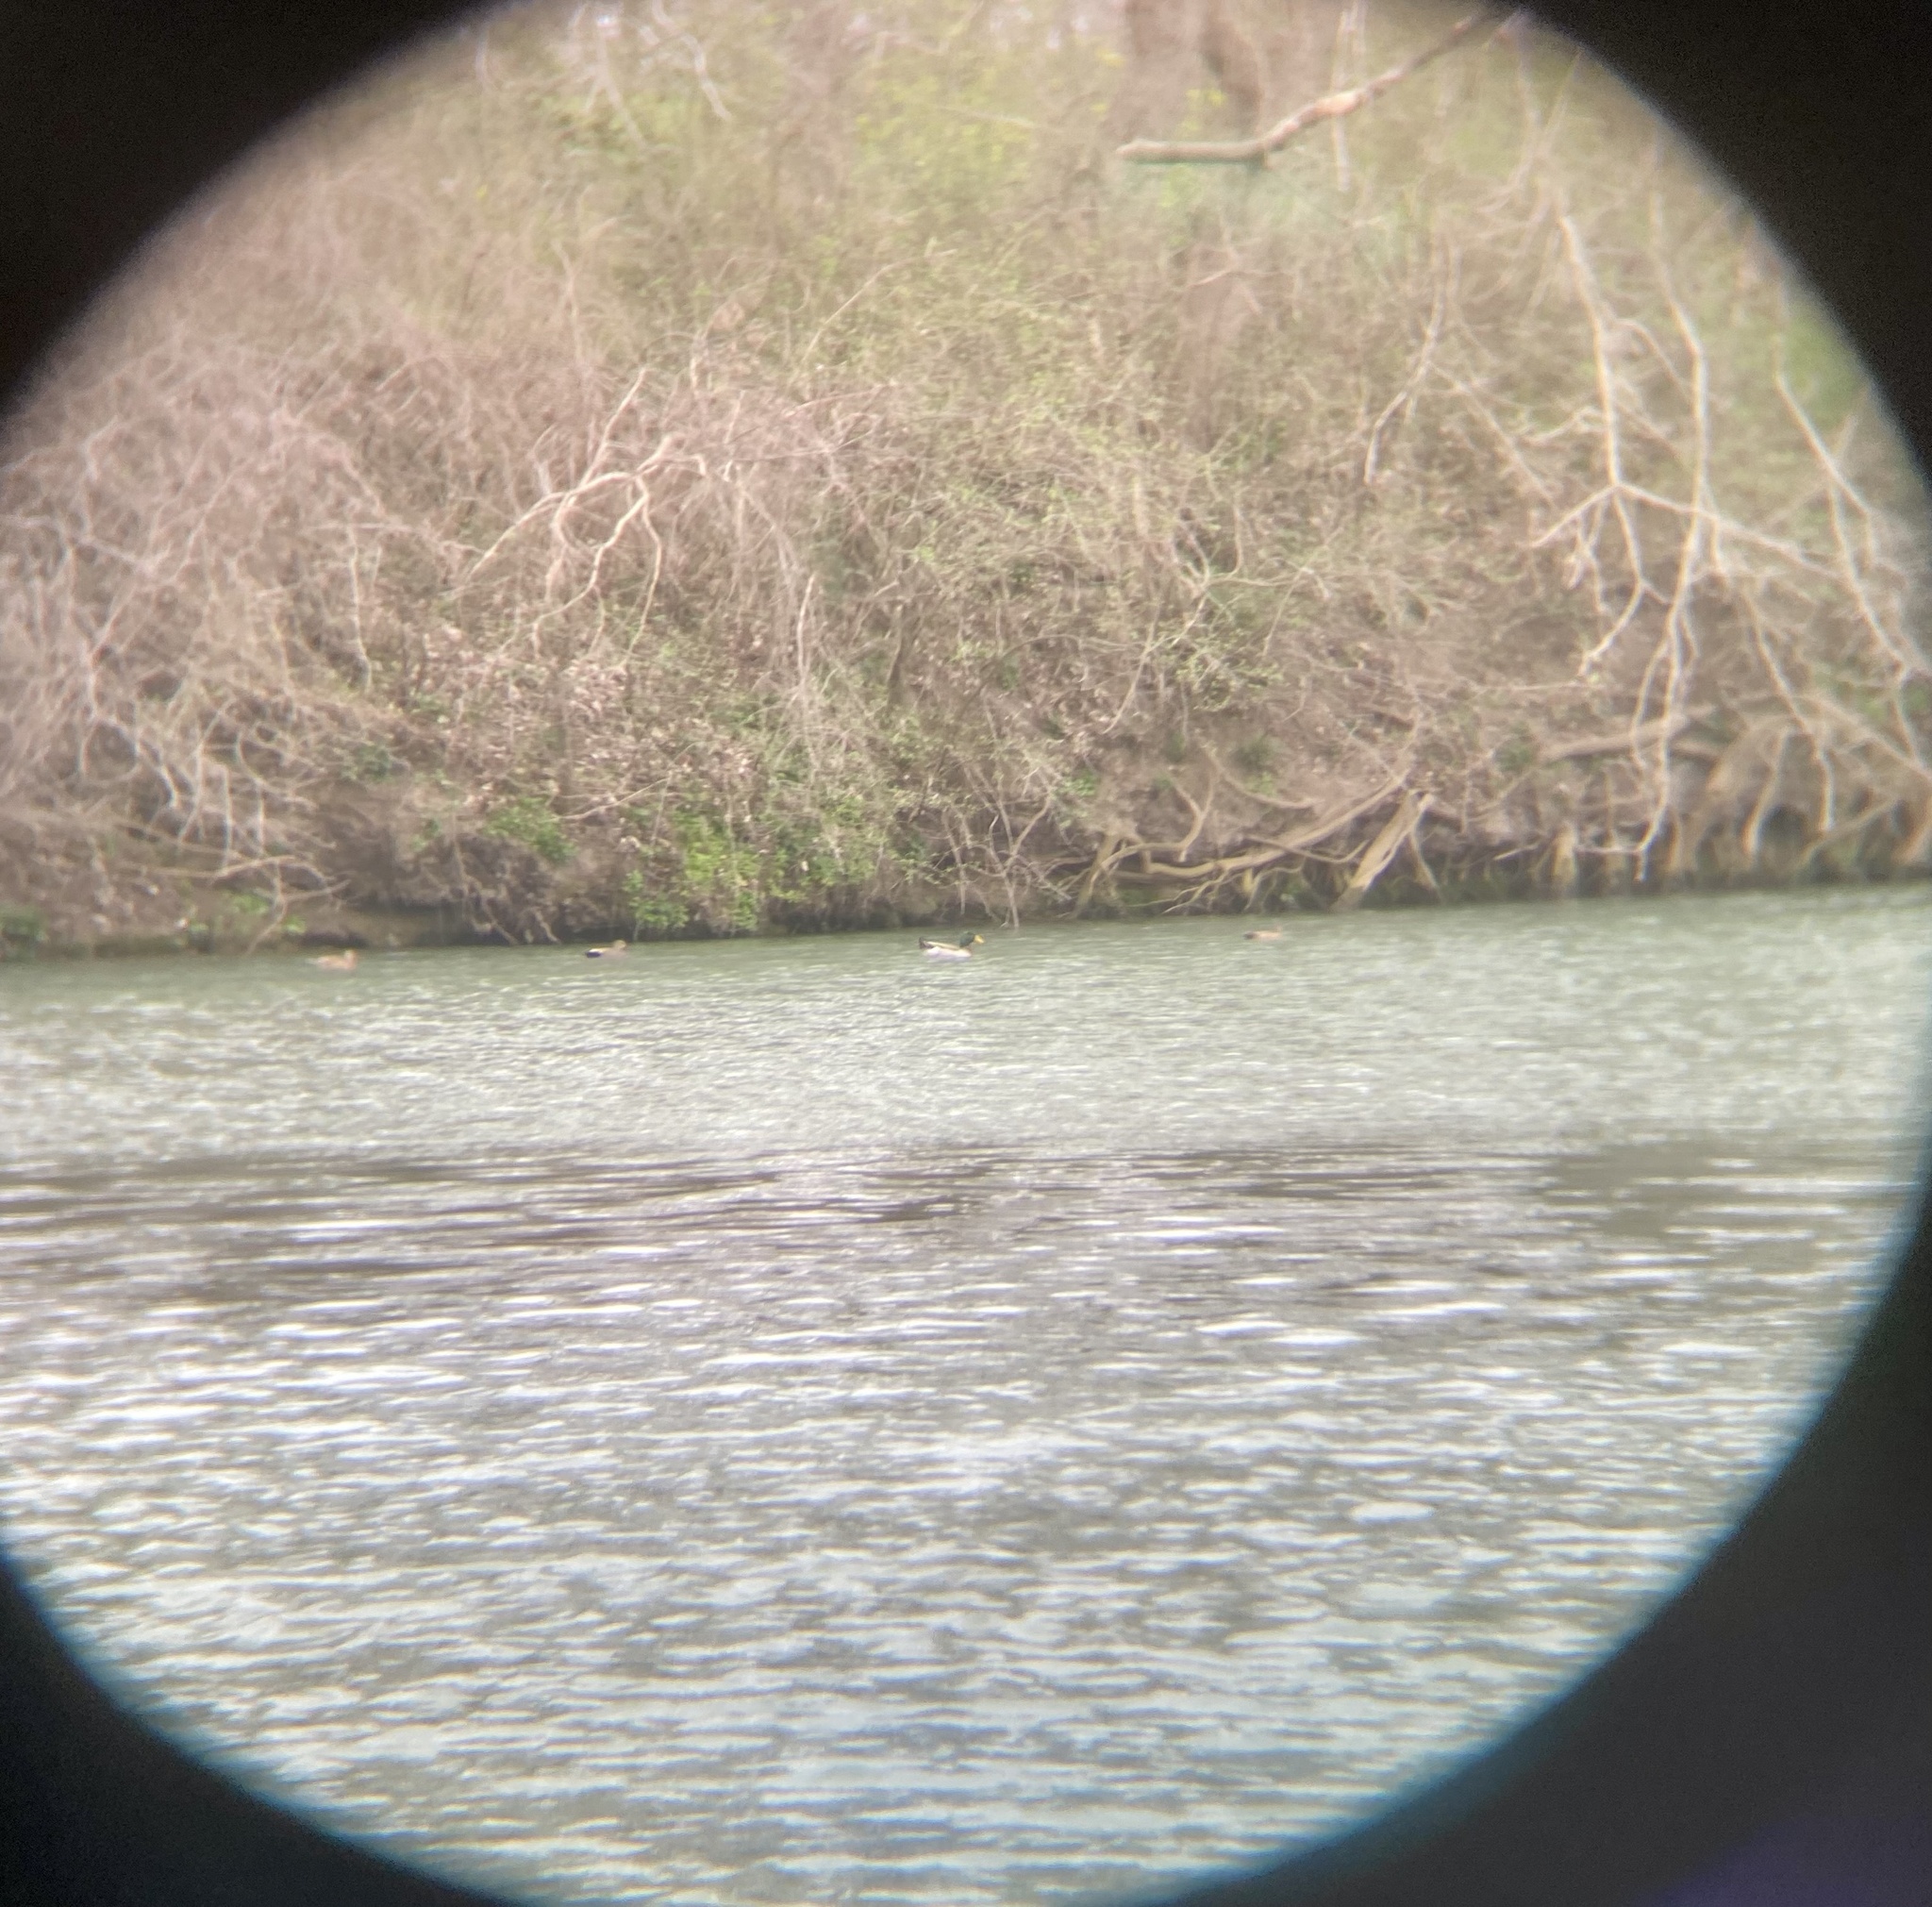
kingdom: Animalia
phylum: Chordata
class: Aves
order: Anseriformes
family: Anatidae
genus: Anas
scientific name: Anas platyrhynchos
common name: Mallard
